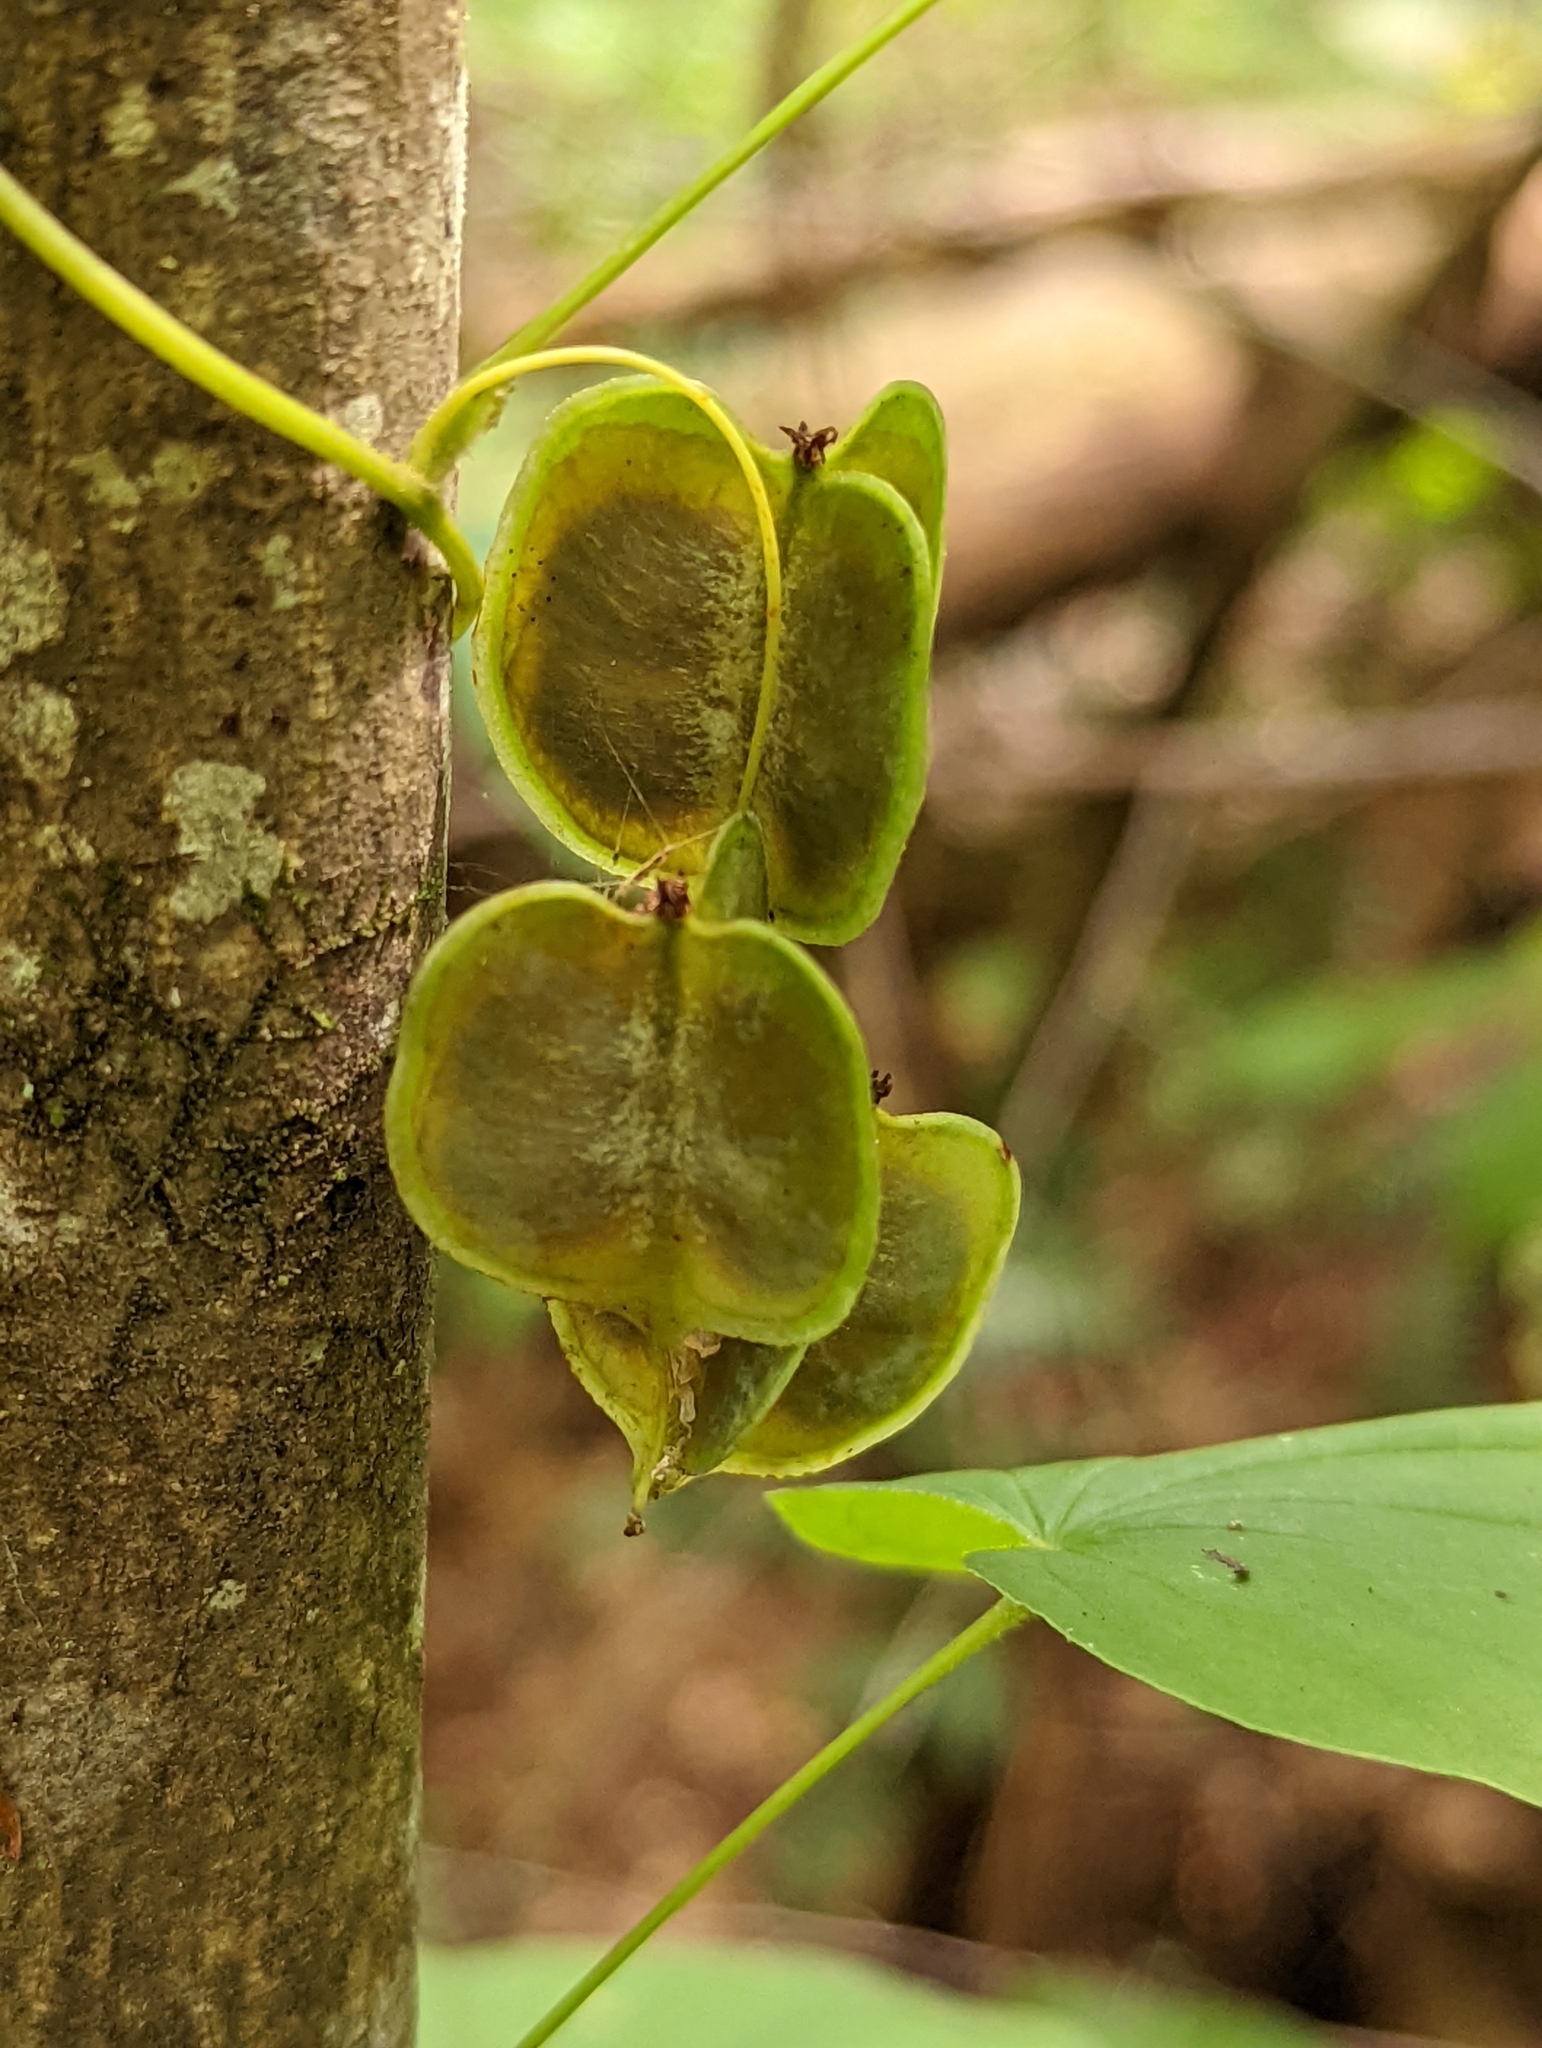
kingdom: Plantae
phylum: Tracheophyta
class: Liliopsida
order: Dioscoreales
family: Dioscoreaceae
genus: Dioscorea
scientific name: Dioscorea villosa
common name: Wild yam
